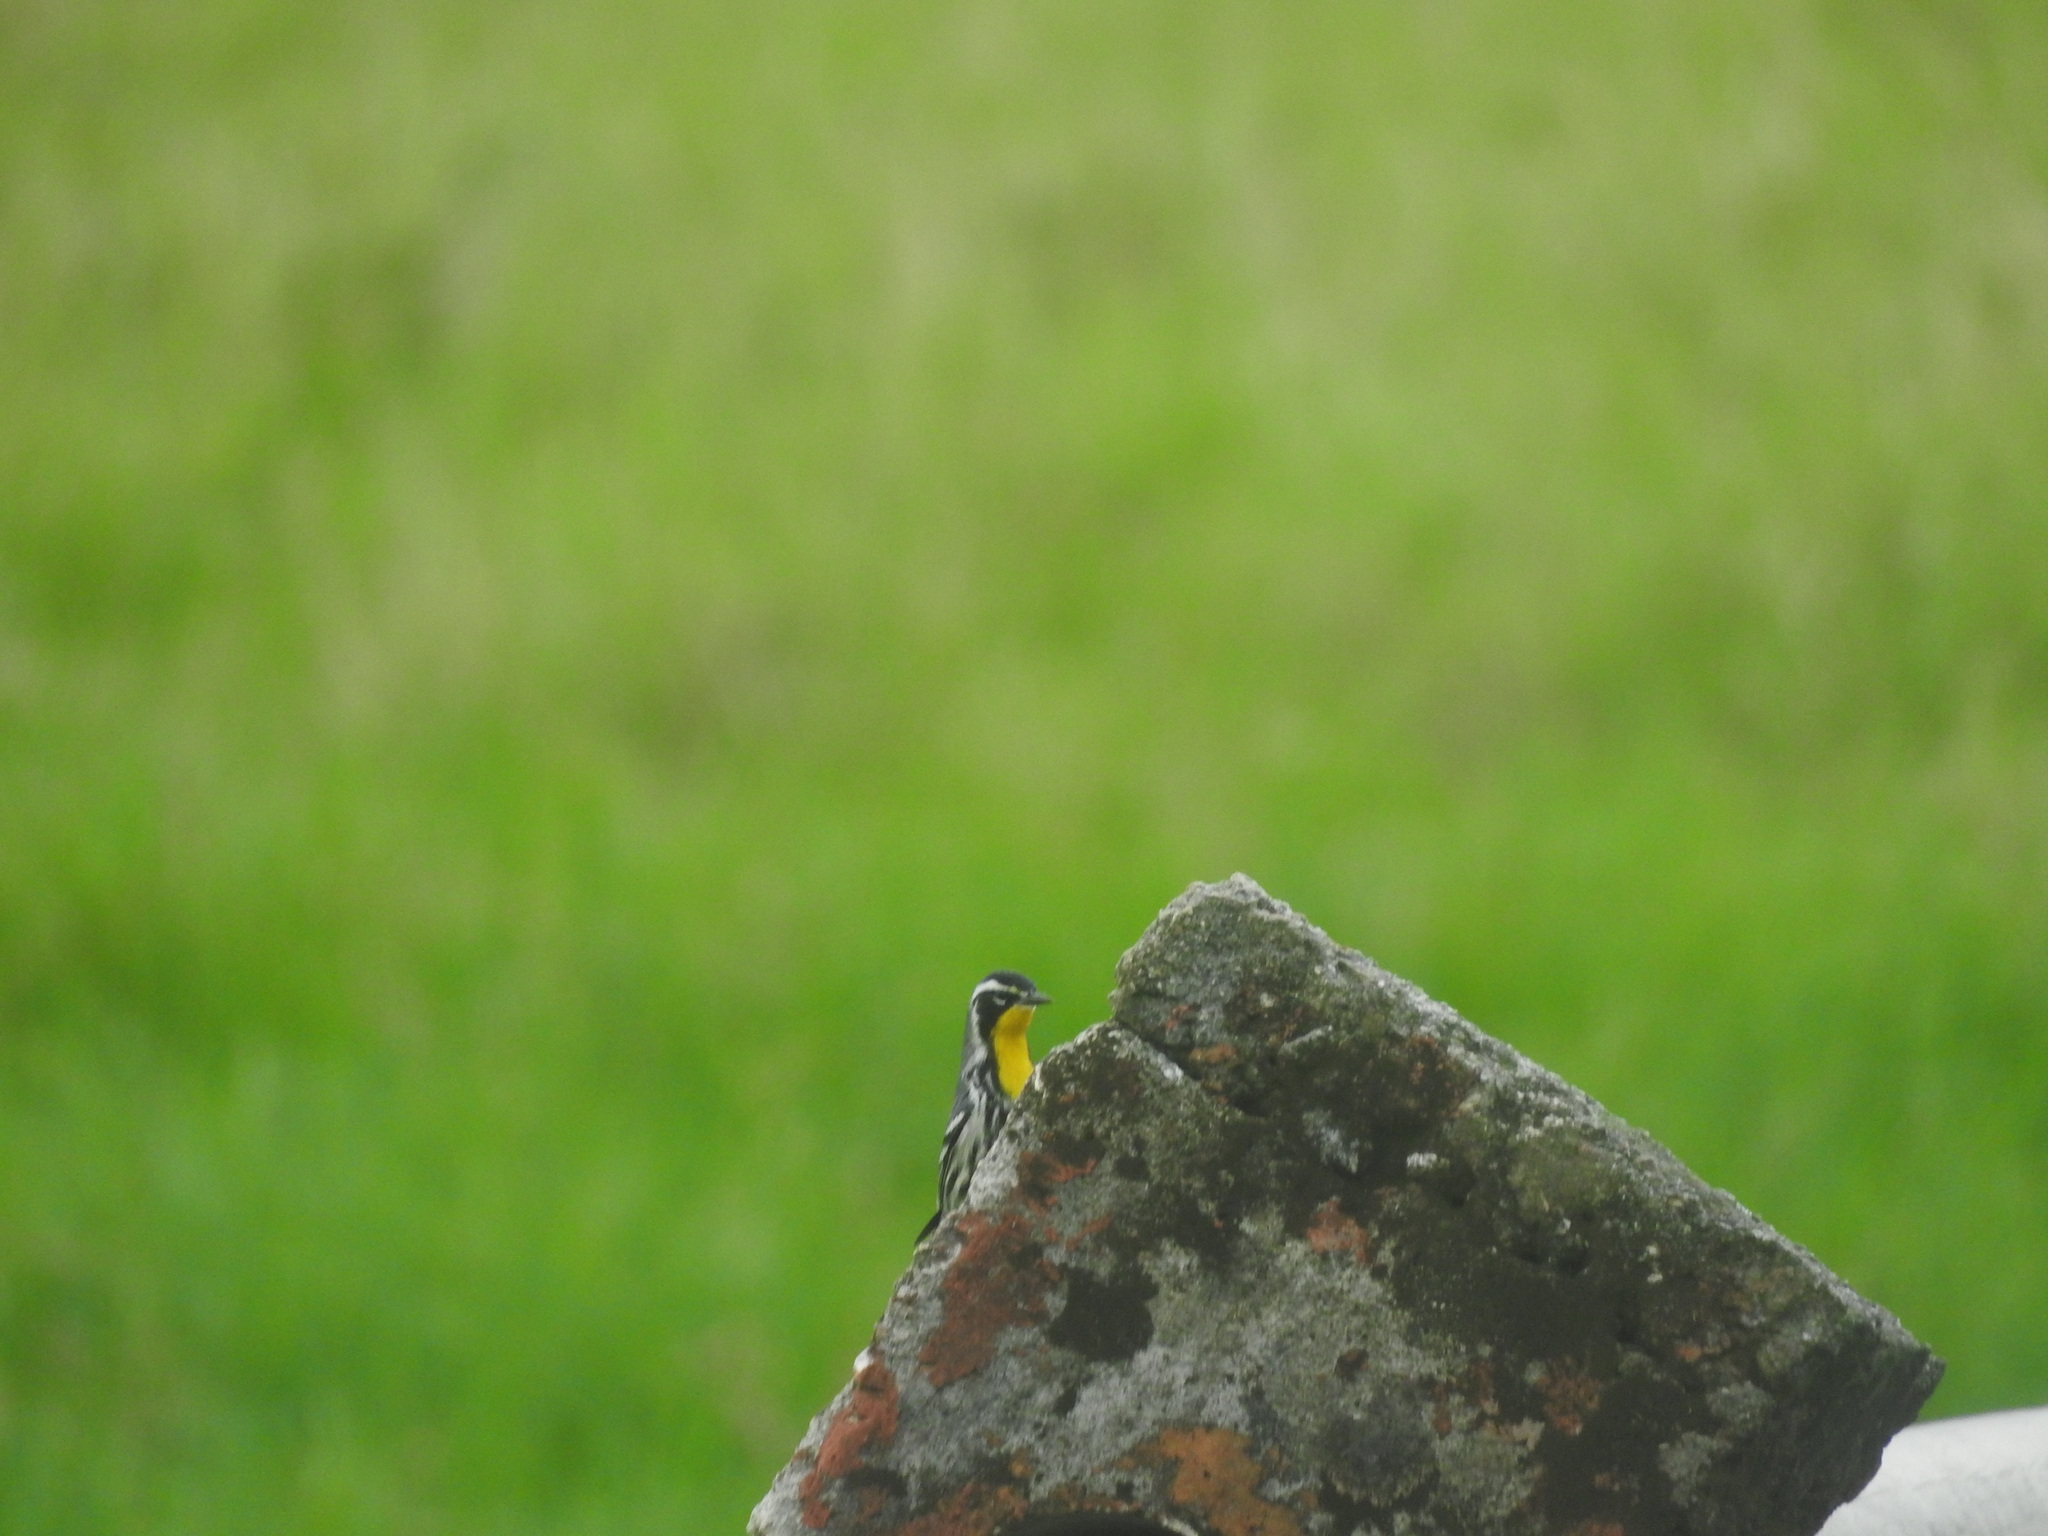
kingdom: Animalia
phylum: Chordata
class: Aves
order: Passeriformes
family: Parulidae
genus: Setophaga
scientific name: Setophaga dominica
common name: Yellow-throated warbler
